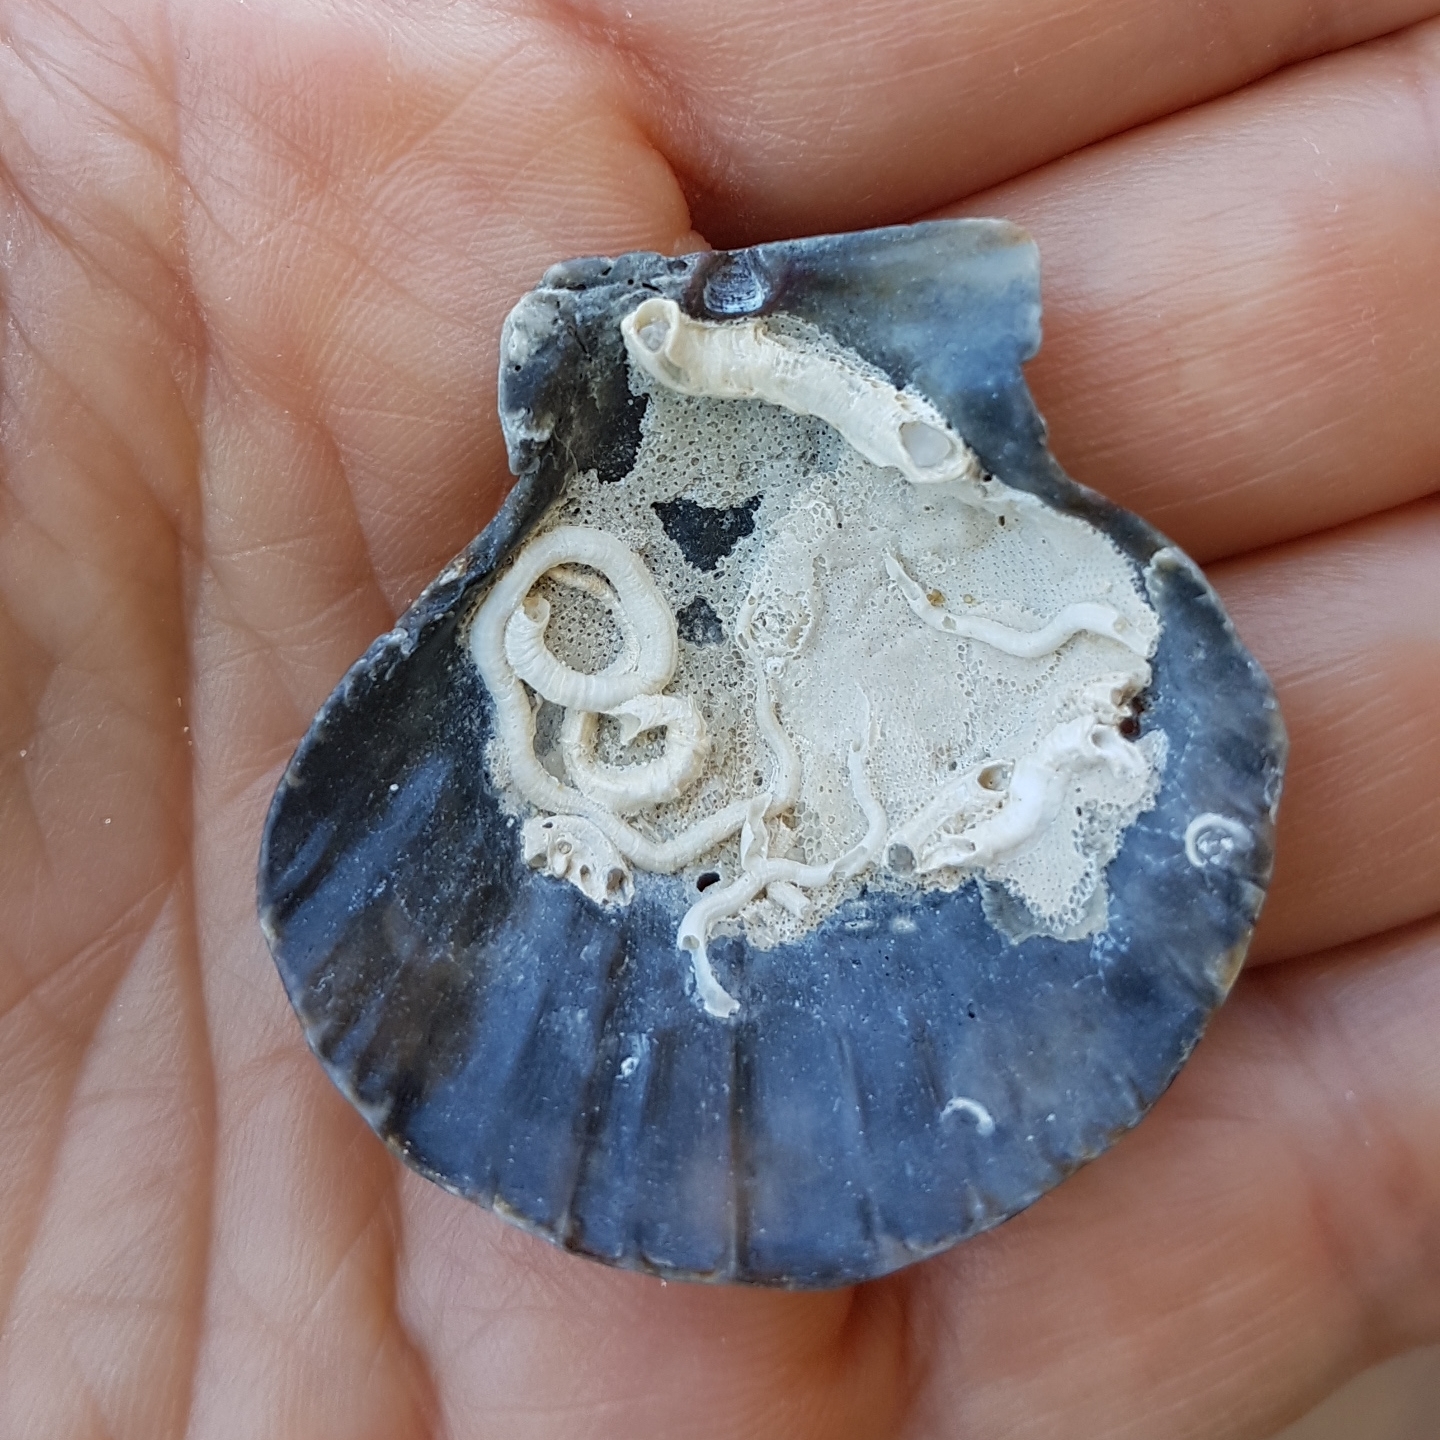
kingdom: Animalia
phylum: Mollusca
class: Bivalvia
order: Pectinida
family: Pectinidae
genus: Flexopecten
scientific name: Flexopecten glaber
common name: Smooth scallop
